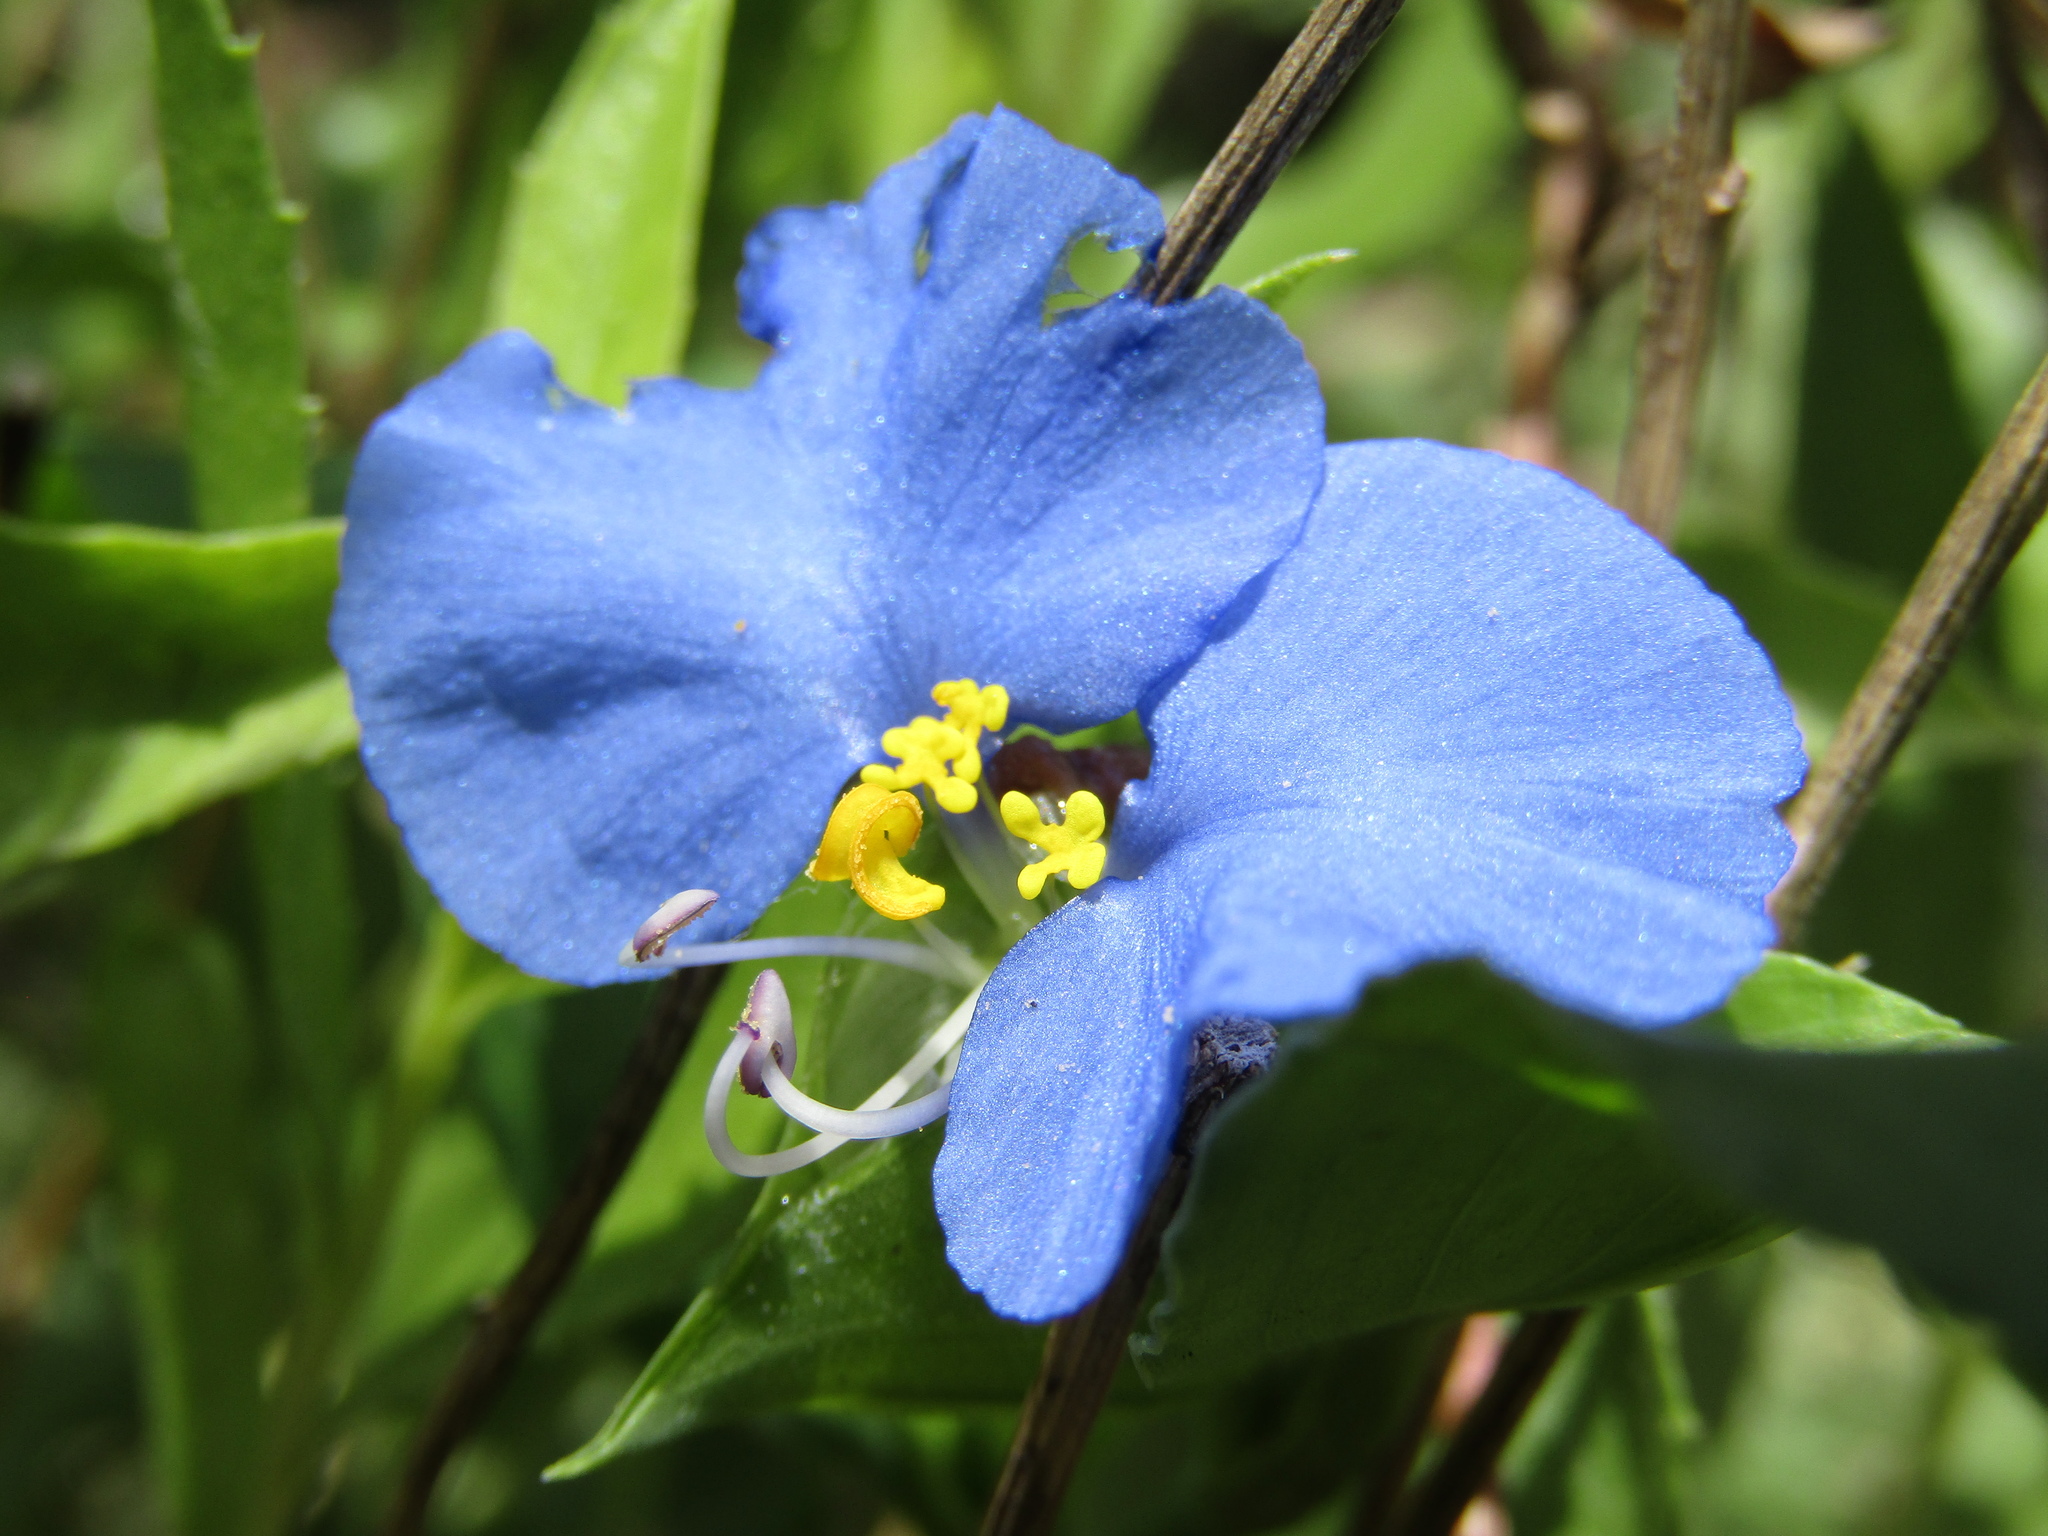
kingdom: Plantae
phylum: Tracheophyta
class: Liliopsida
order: Commelinales
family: Commelinaceae
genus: Commelina
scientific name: Commelina erecta
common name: Blousel blommetjie
